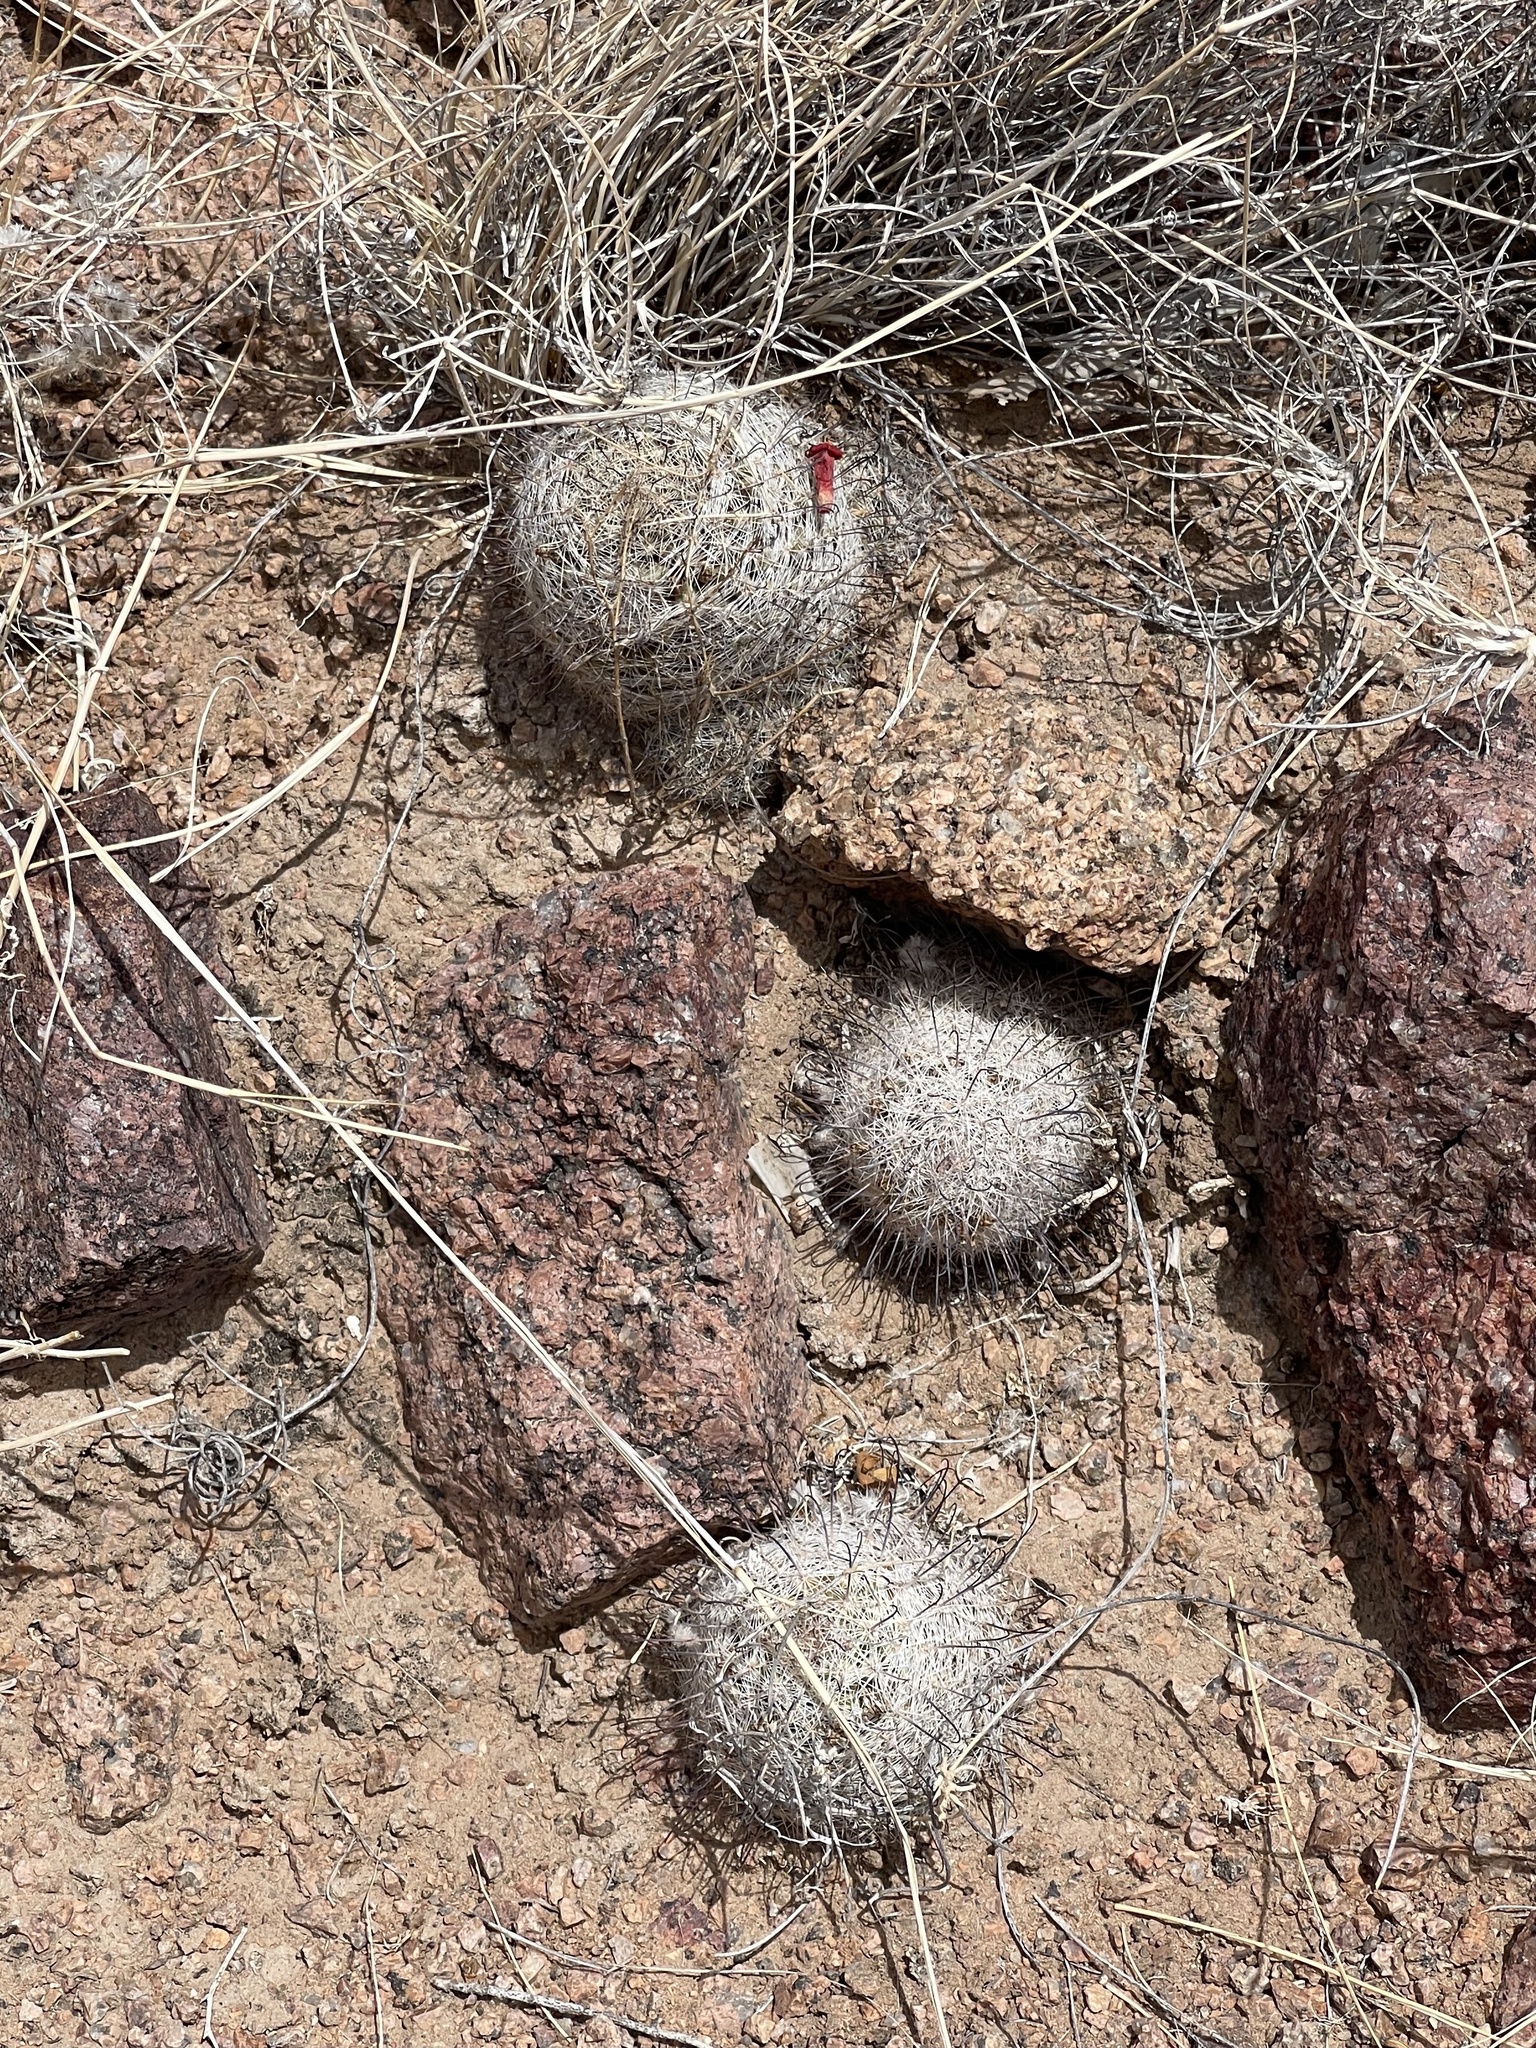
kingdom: Plantae
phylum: Tracheophyta
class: Magnoliopsida
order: Caryophyllales
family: Cactaceae
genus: Cochemiea
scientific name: Cochemiea grahamii
